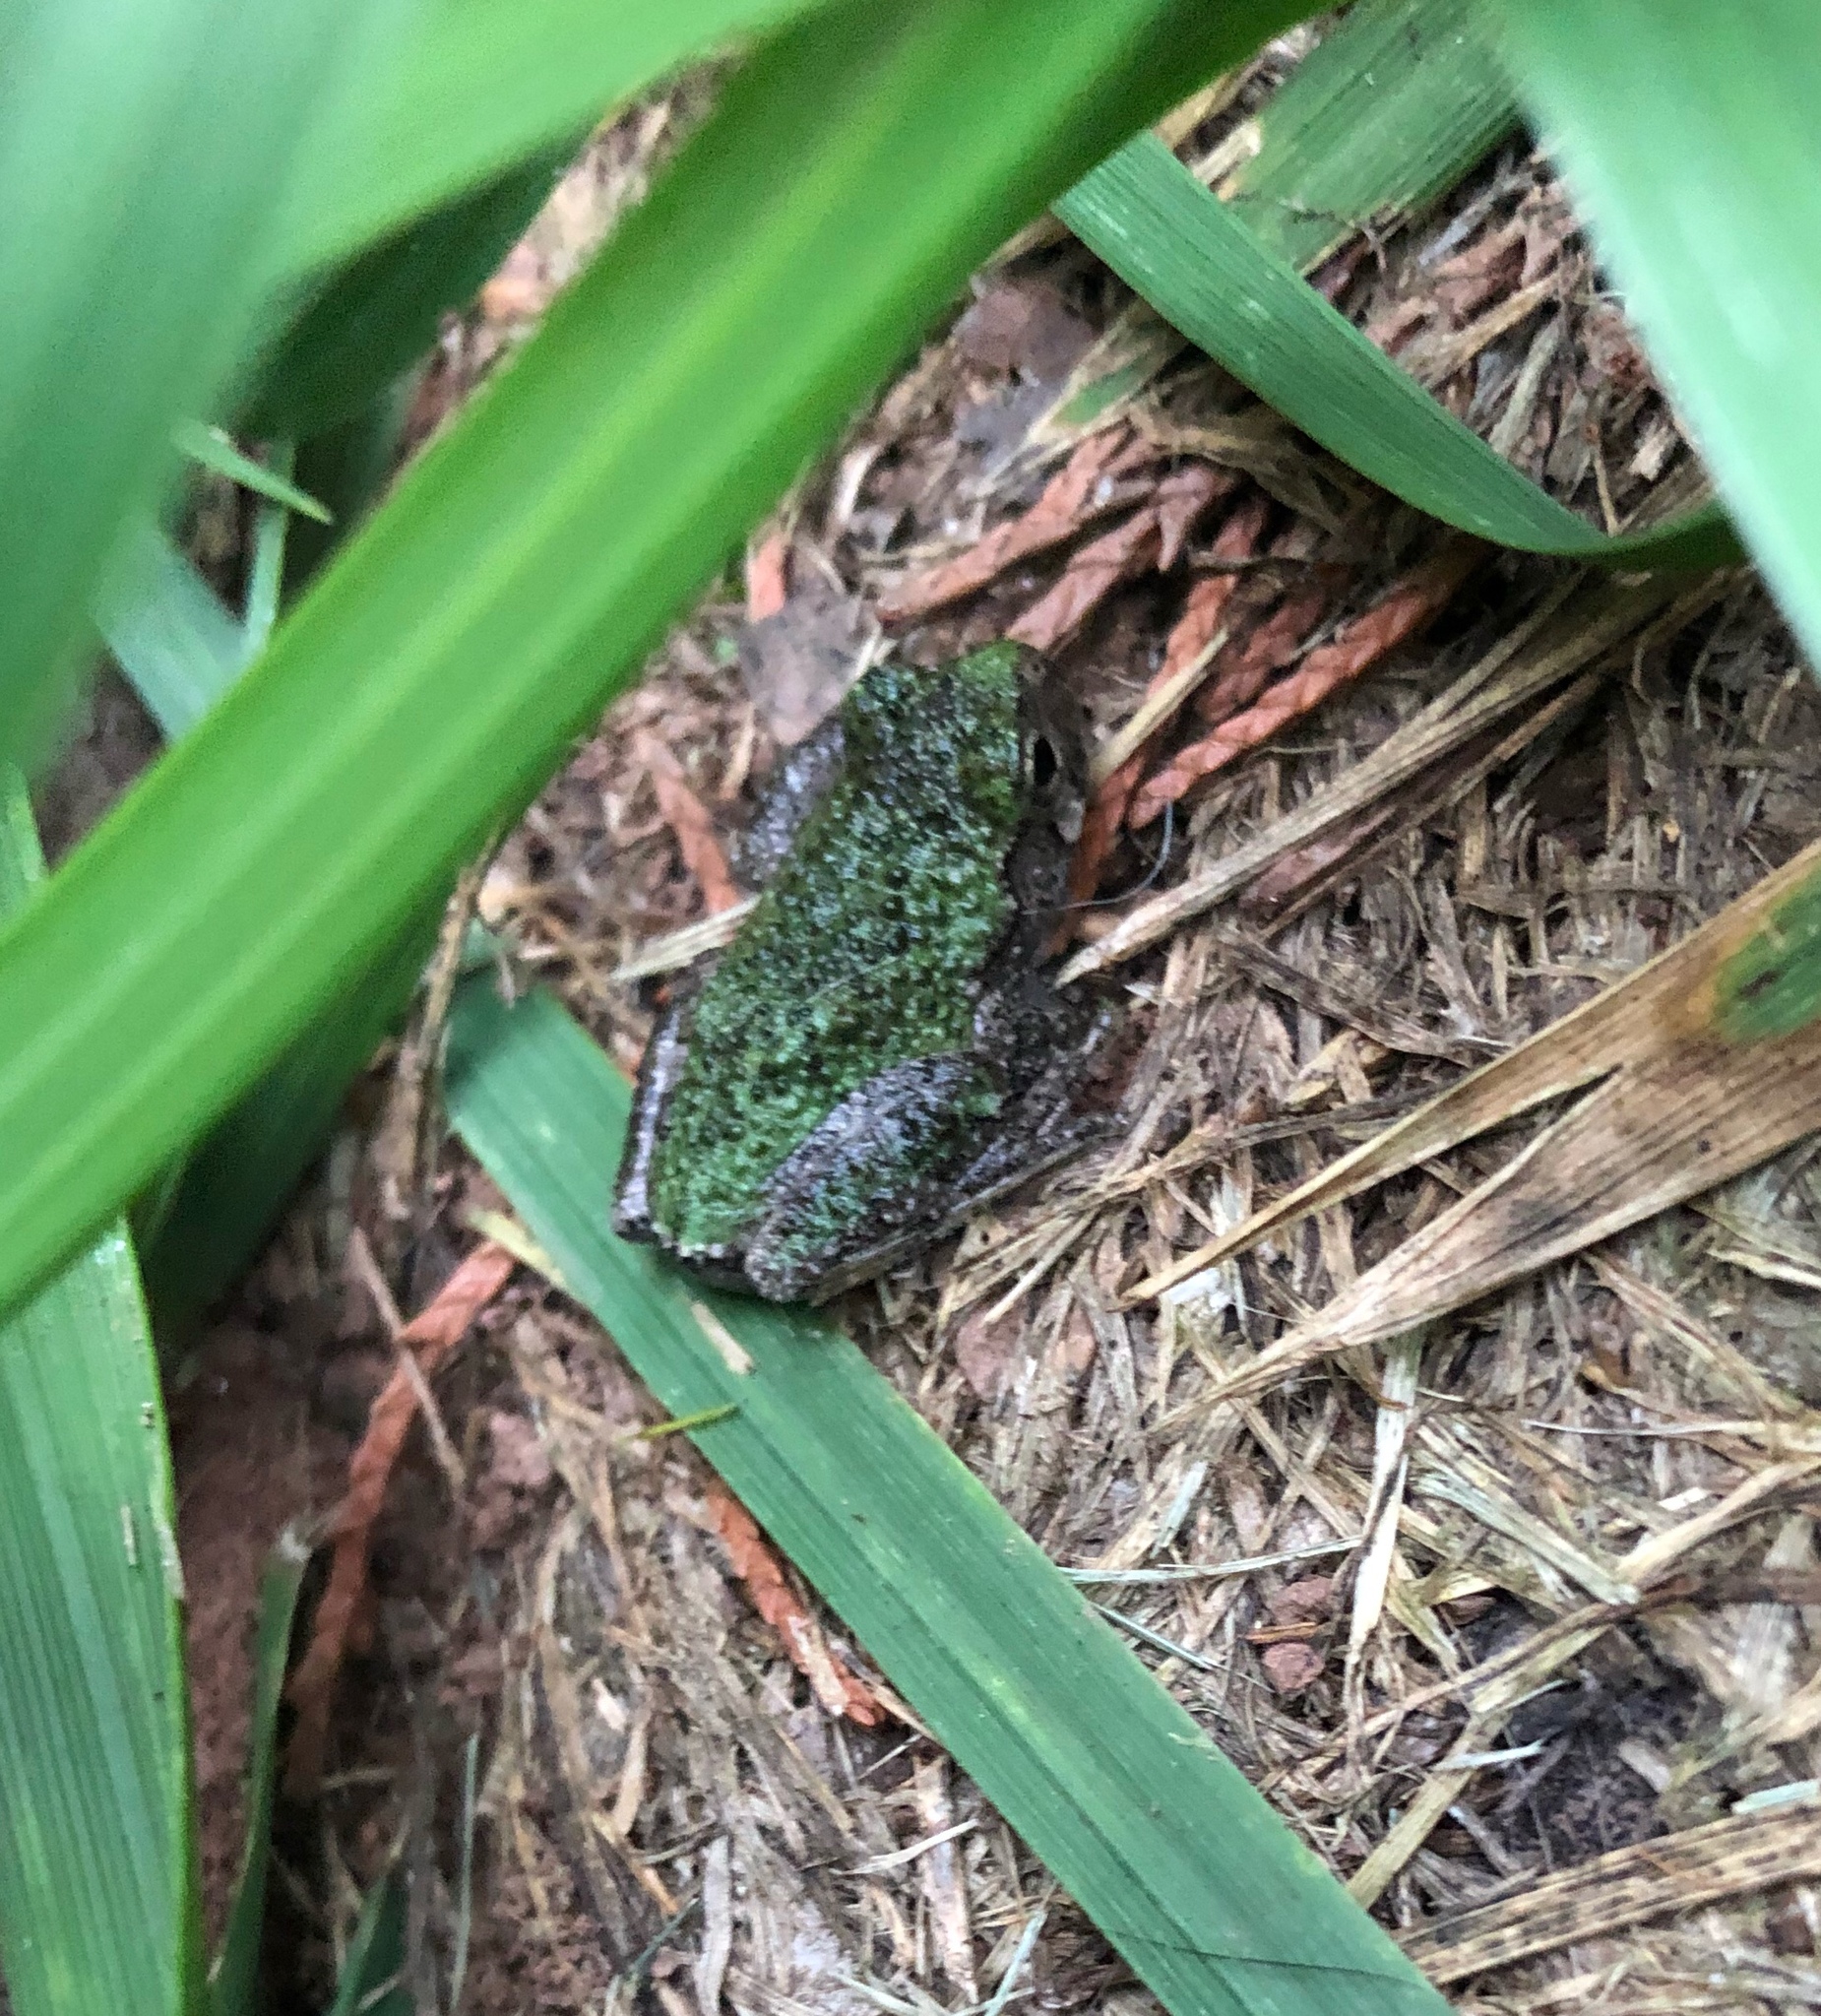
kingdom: Animalia
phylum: Chordata
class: Amphibia
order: Anura
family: Hylidae
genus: Dryophytes
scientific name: Dryophytes versicolor
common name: Gray treefrog
